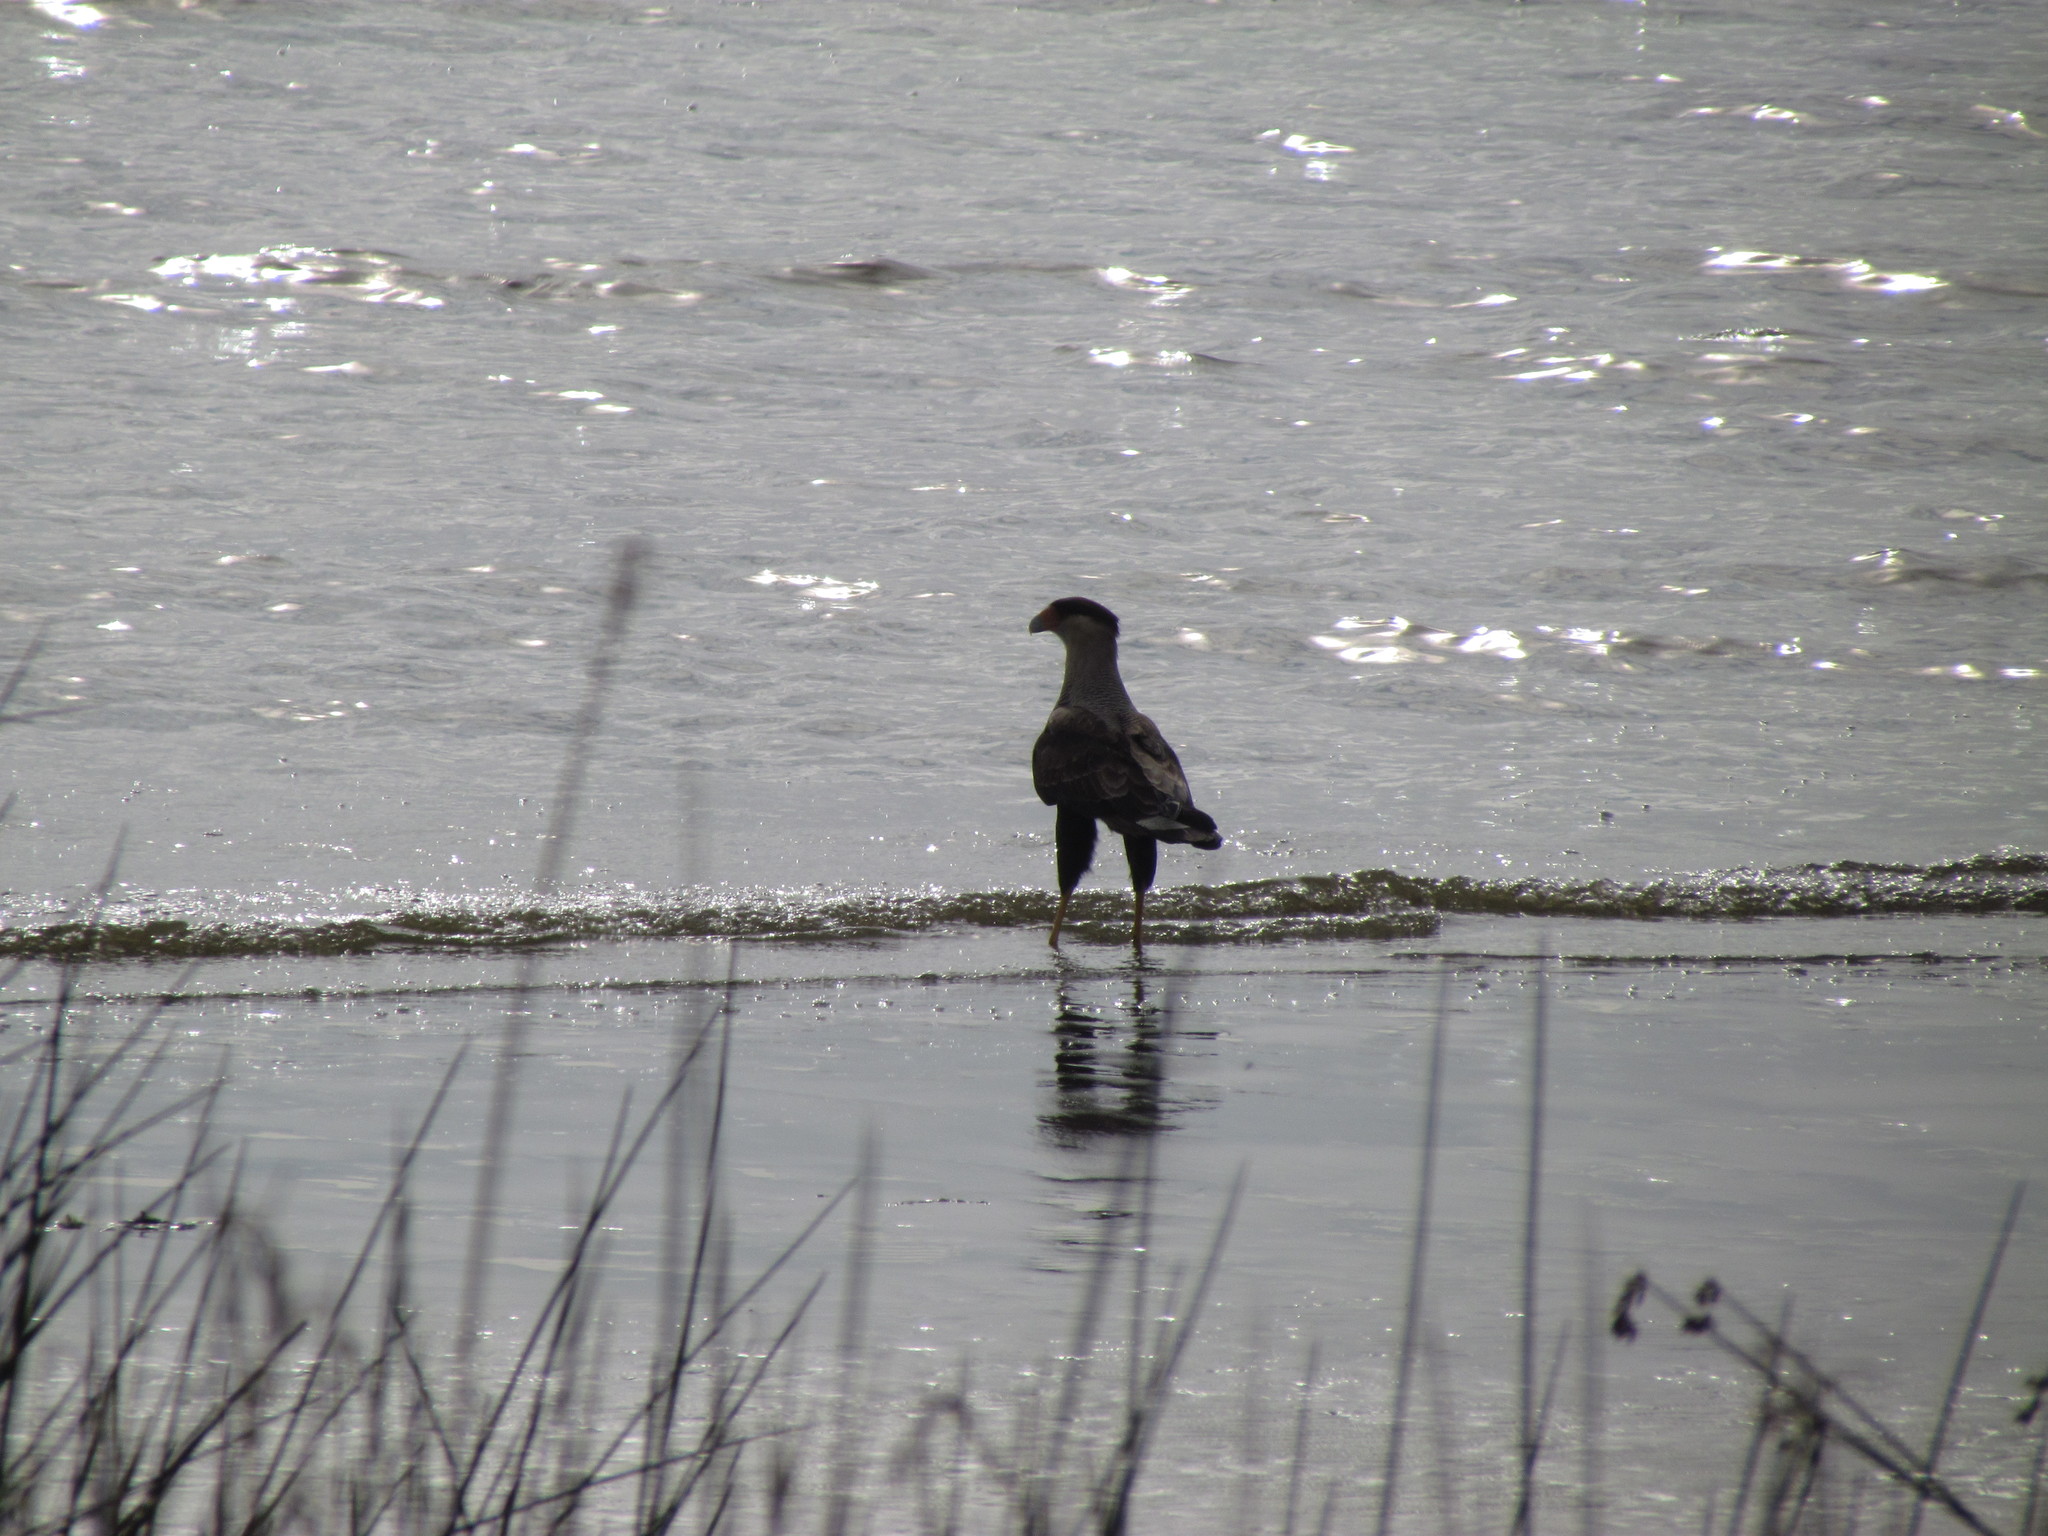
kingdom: Animalia
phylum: Chordata
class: Aves
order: Falconiformes
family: Falconidae
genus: Caracara
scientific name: Caracara plancus
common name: Southern caracara
